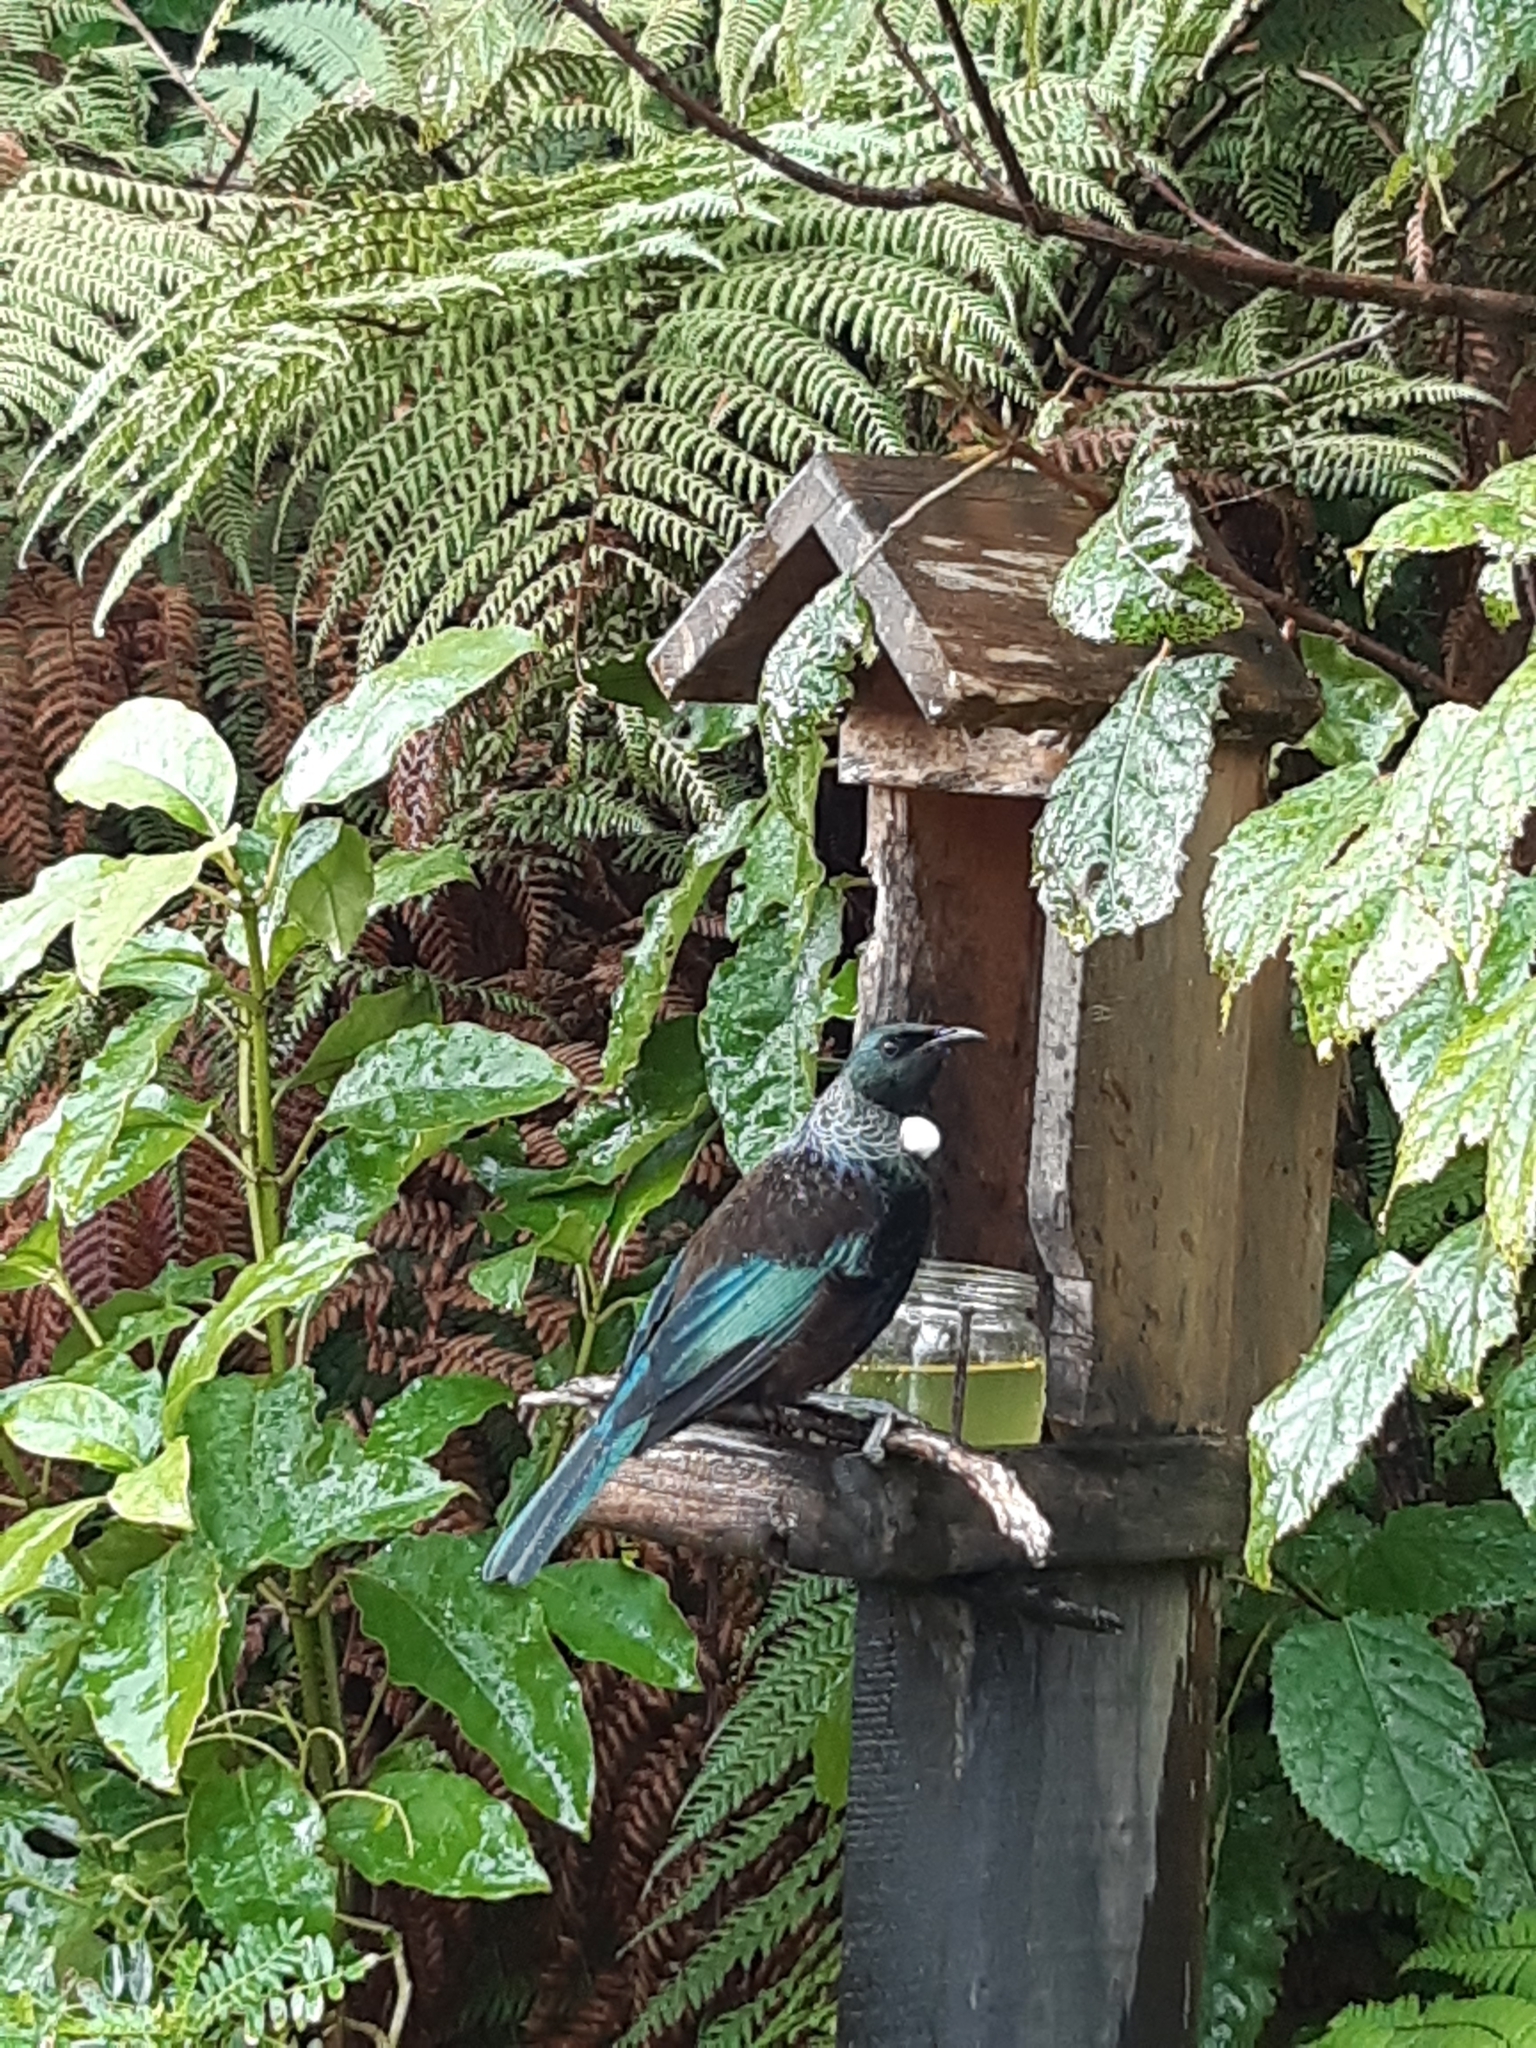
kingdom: Animalia
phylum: Chordata
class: Aves
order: Passeriformes
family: Meliphagidae
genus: Prosthemadera
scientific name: Prosthemadera novaeseelandiae
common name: Tui
